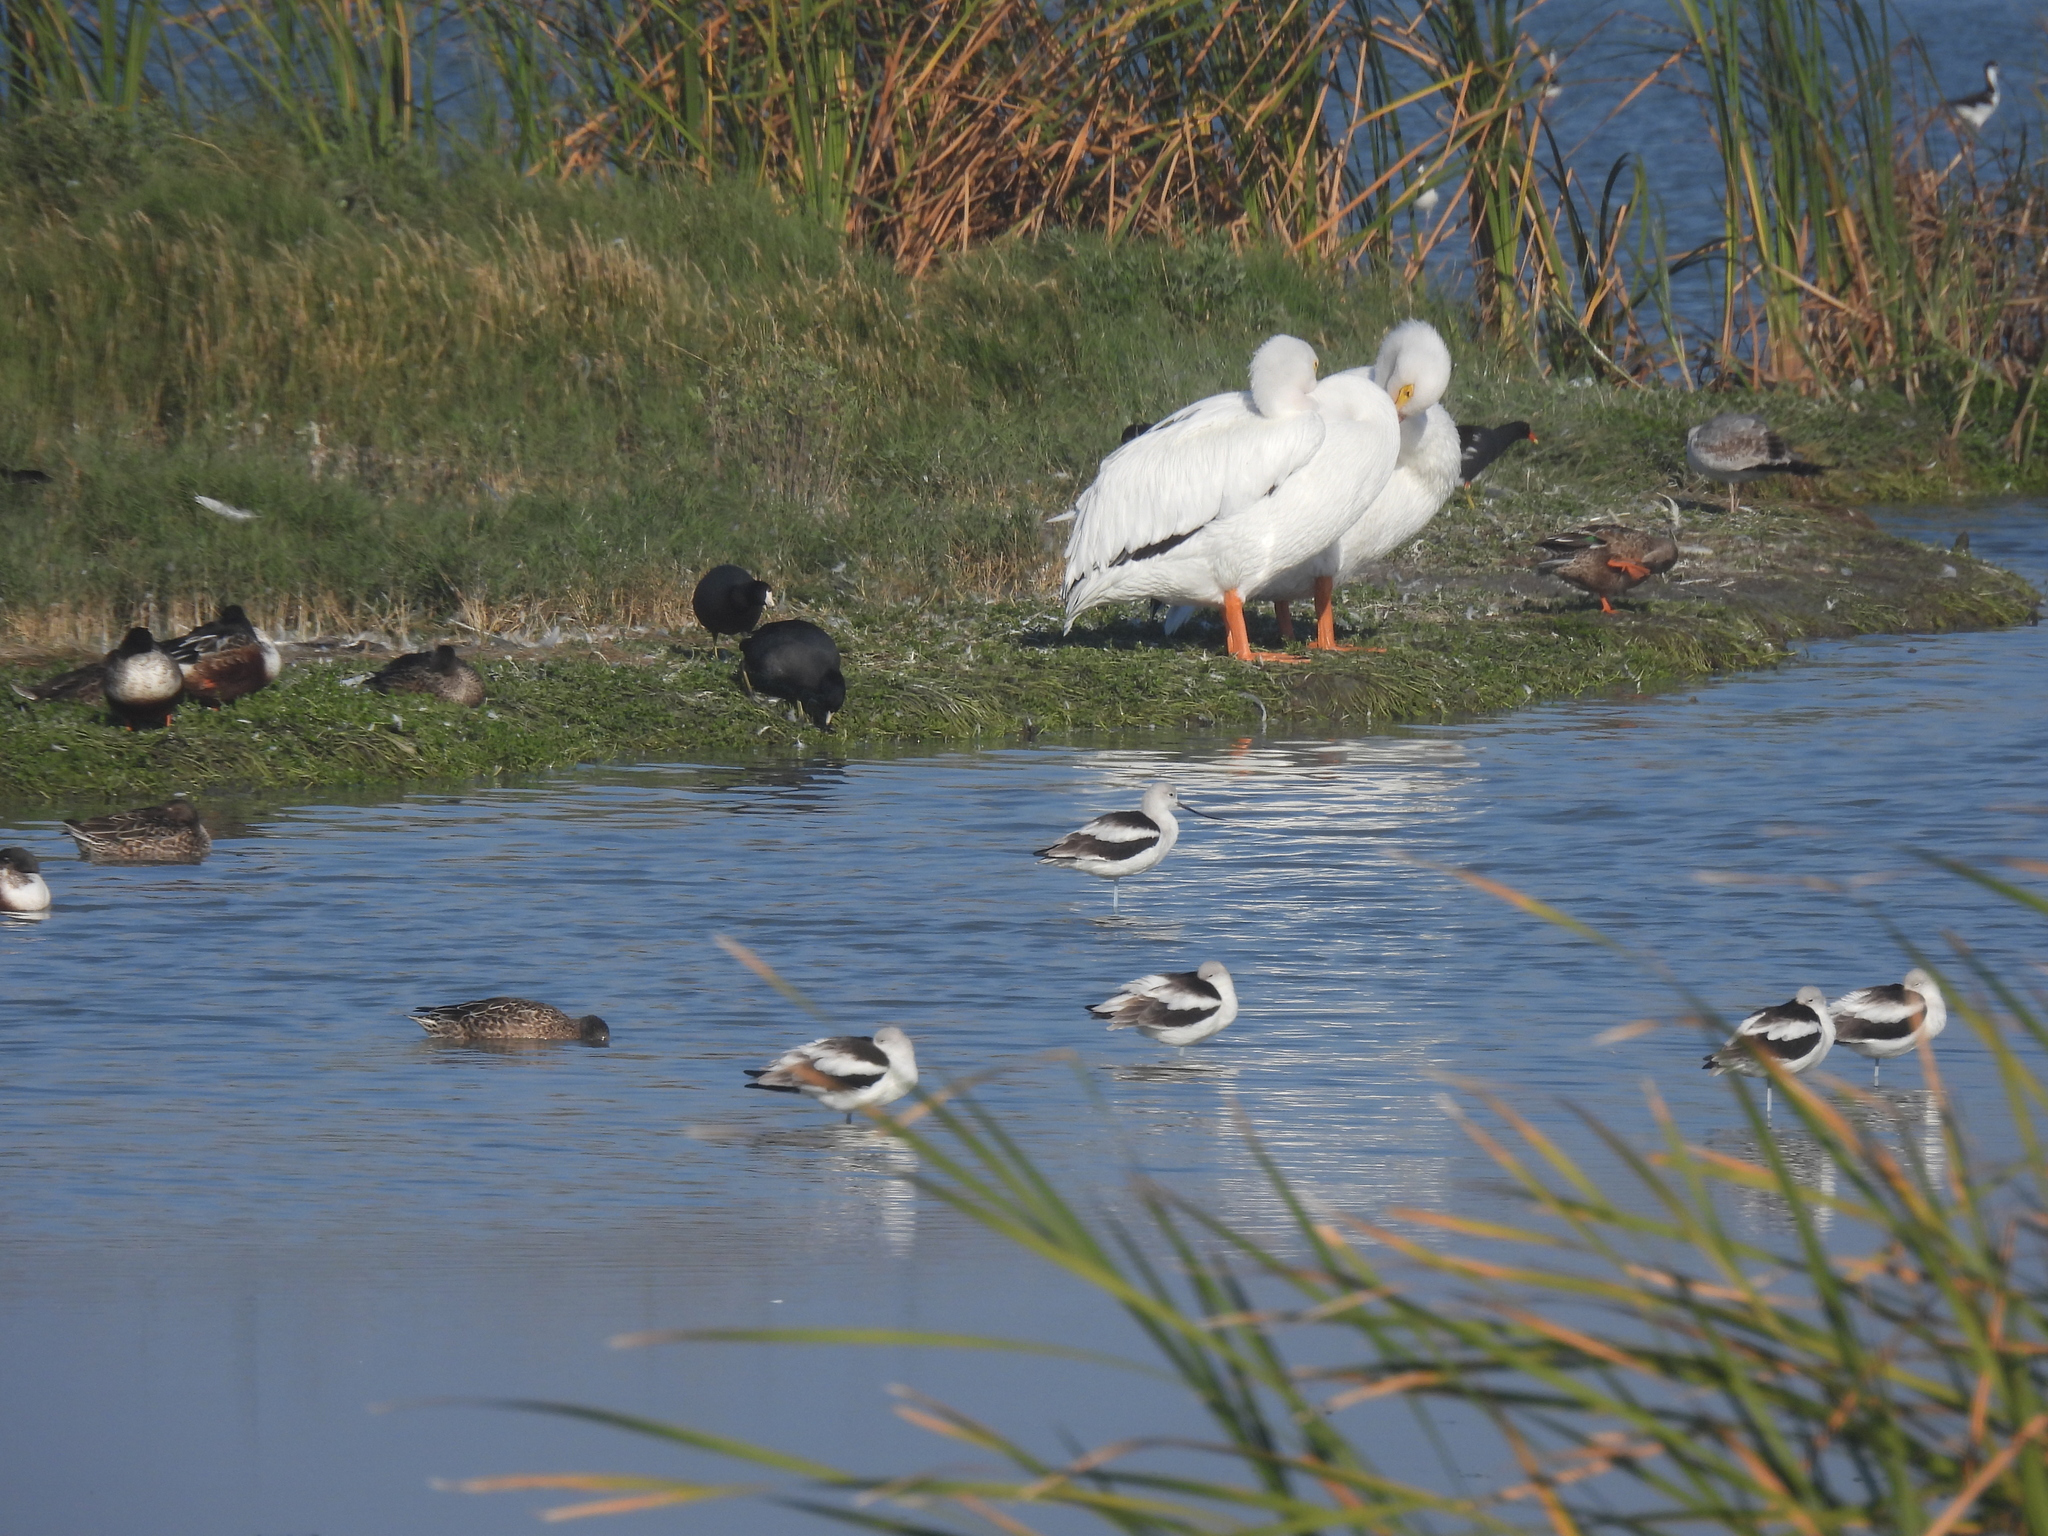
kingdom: Animalia
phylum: Chordata
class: Aves
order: Gruiformes
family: Rallidae
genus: Fulica
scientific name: Fulica americana
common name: American coot
